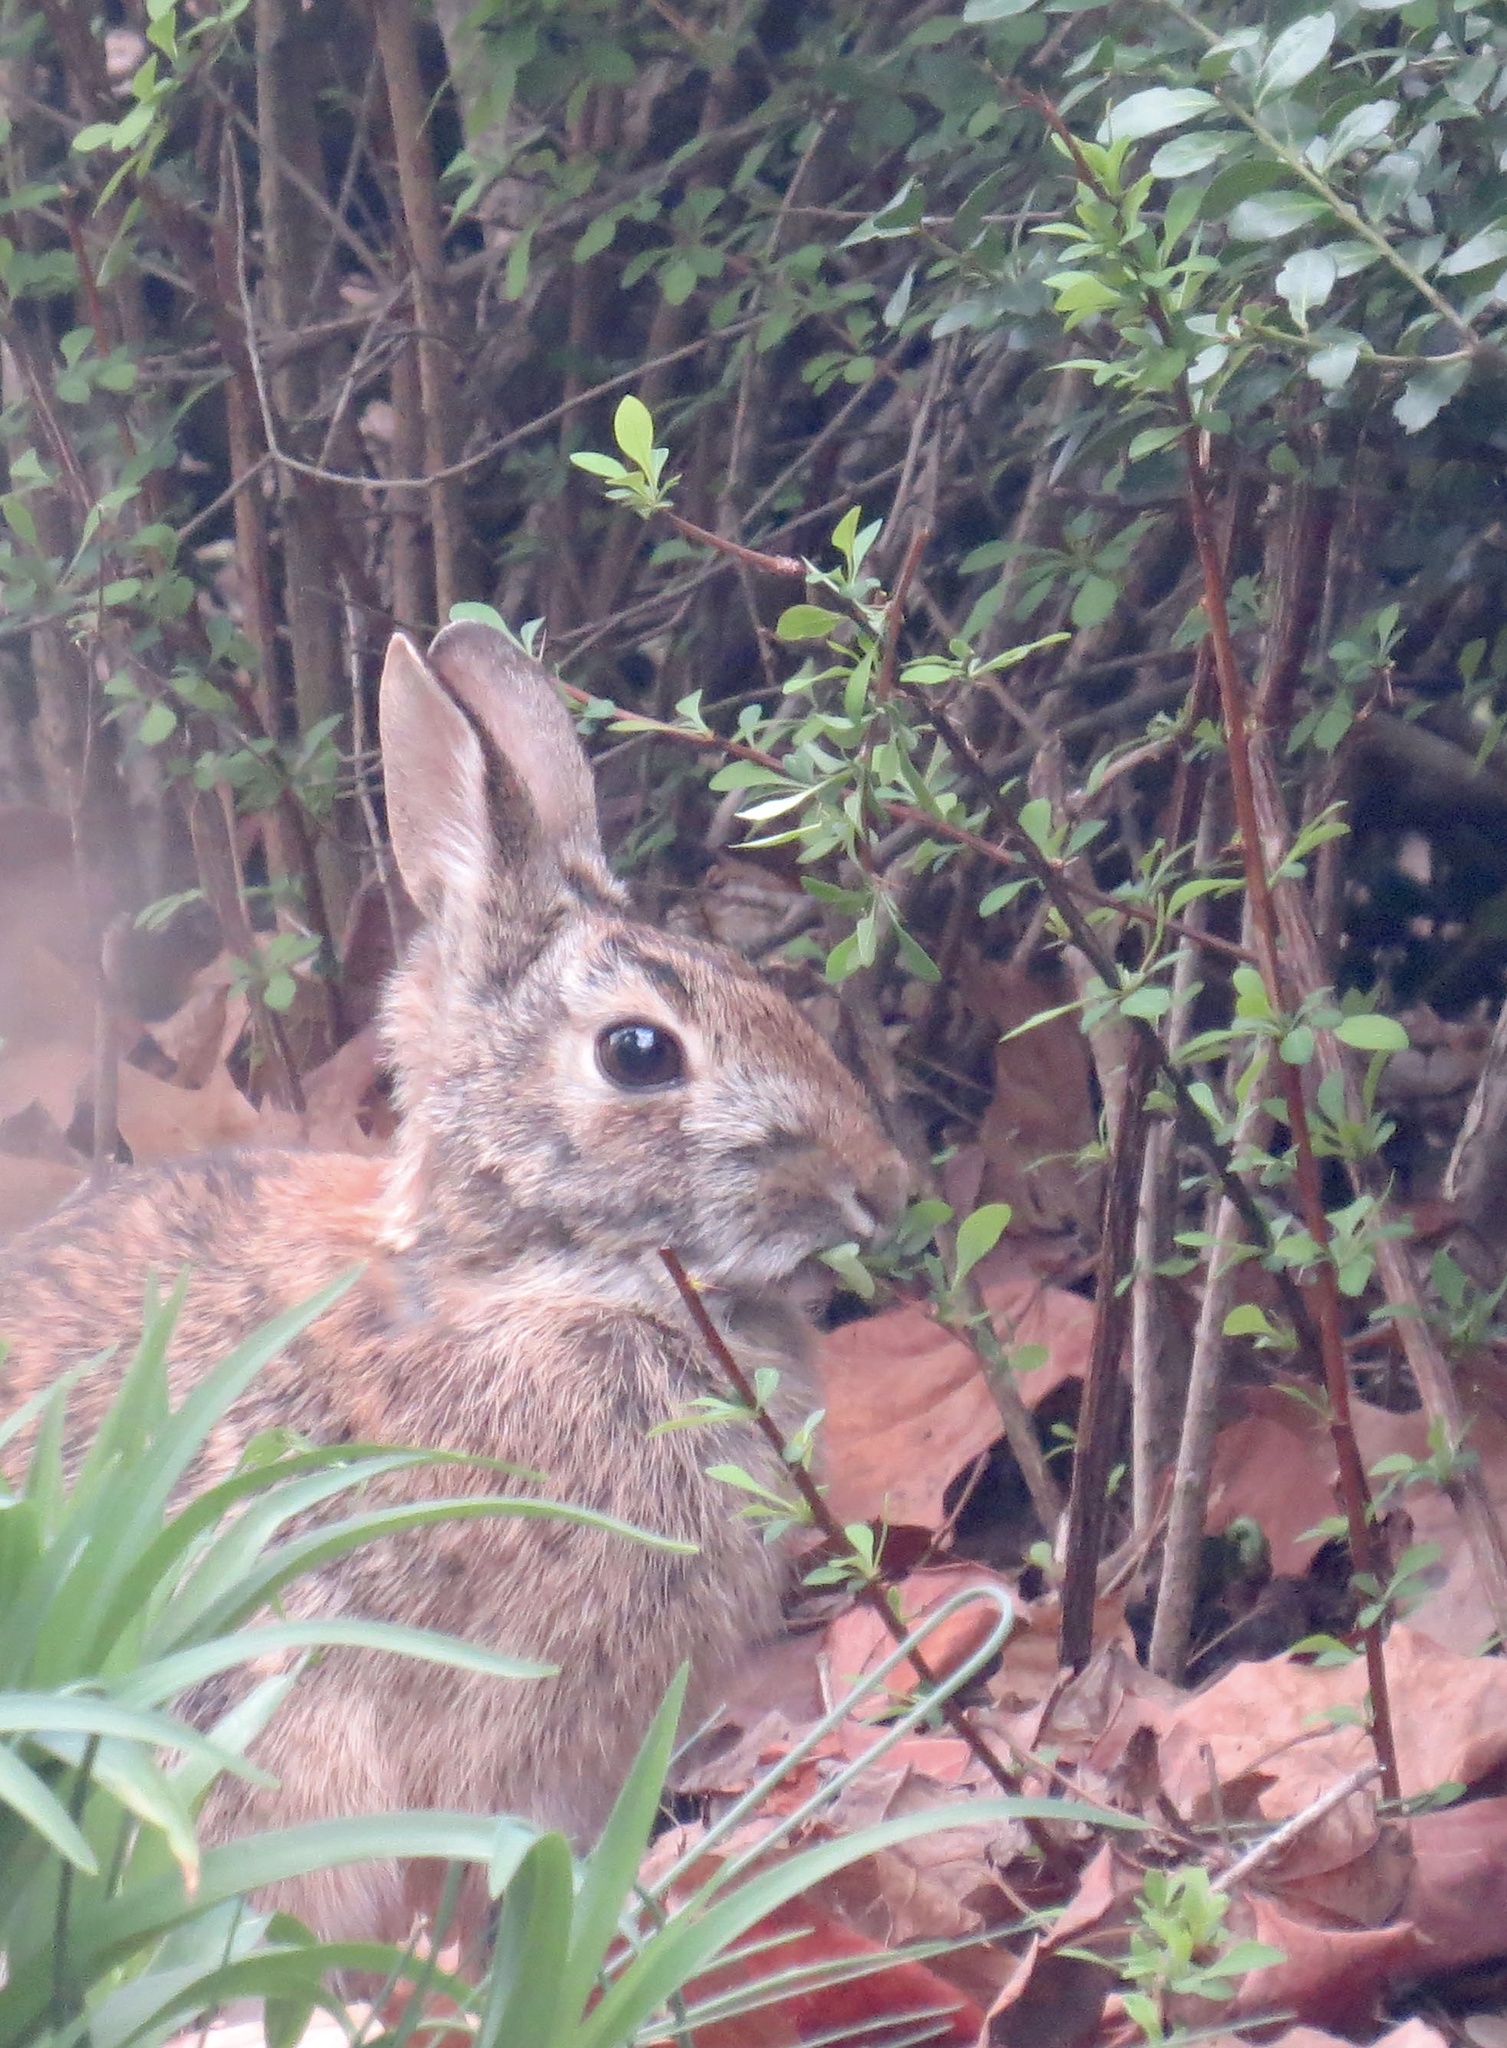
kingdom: Animalia
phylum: Chordata
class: Mammalia
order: Lagomorpha
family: Leporidae
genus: Sylvilagus
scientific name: Sylvilagus floridanus
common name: Eastern cottontail
